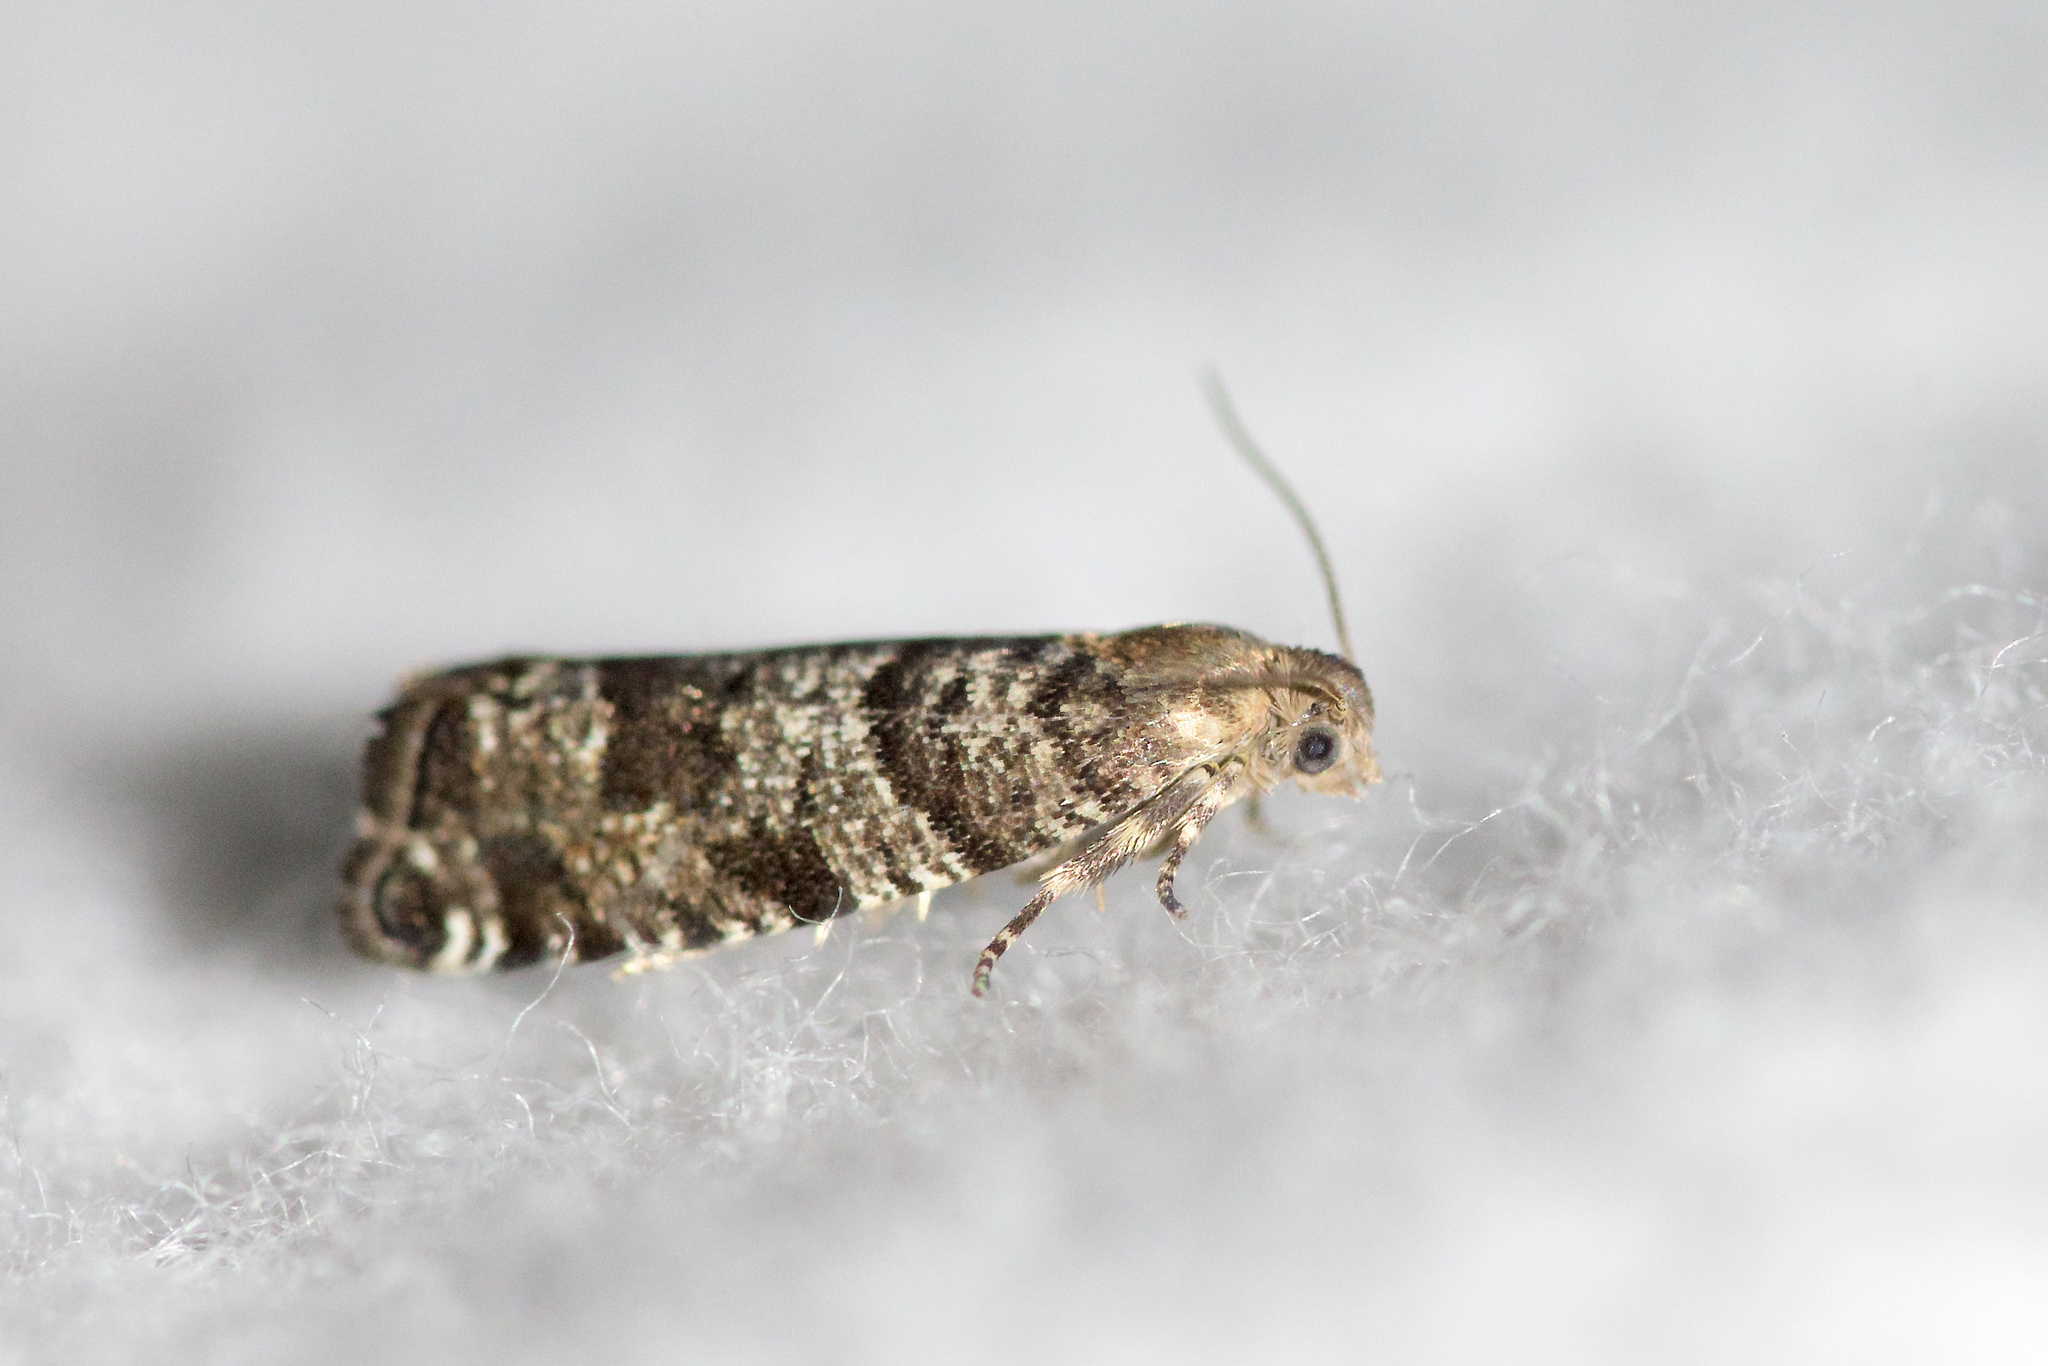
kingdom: Animalia
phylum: Arthropoda
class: Insecta
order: Lepidoptera
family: Tortricidae
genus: Epinotia
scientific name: Epinotia nanana
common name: Leaf roller
